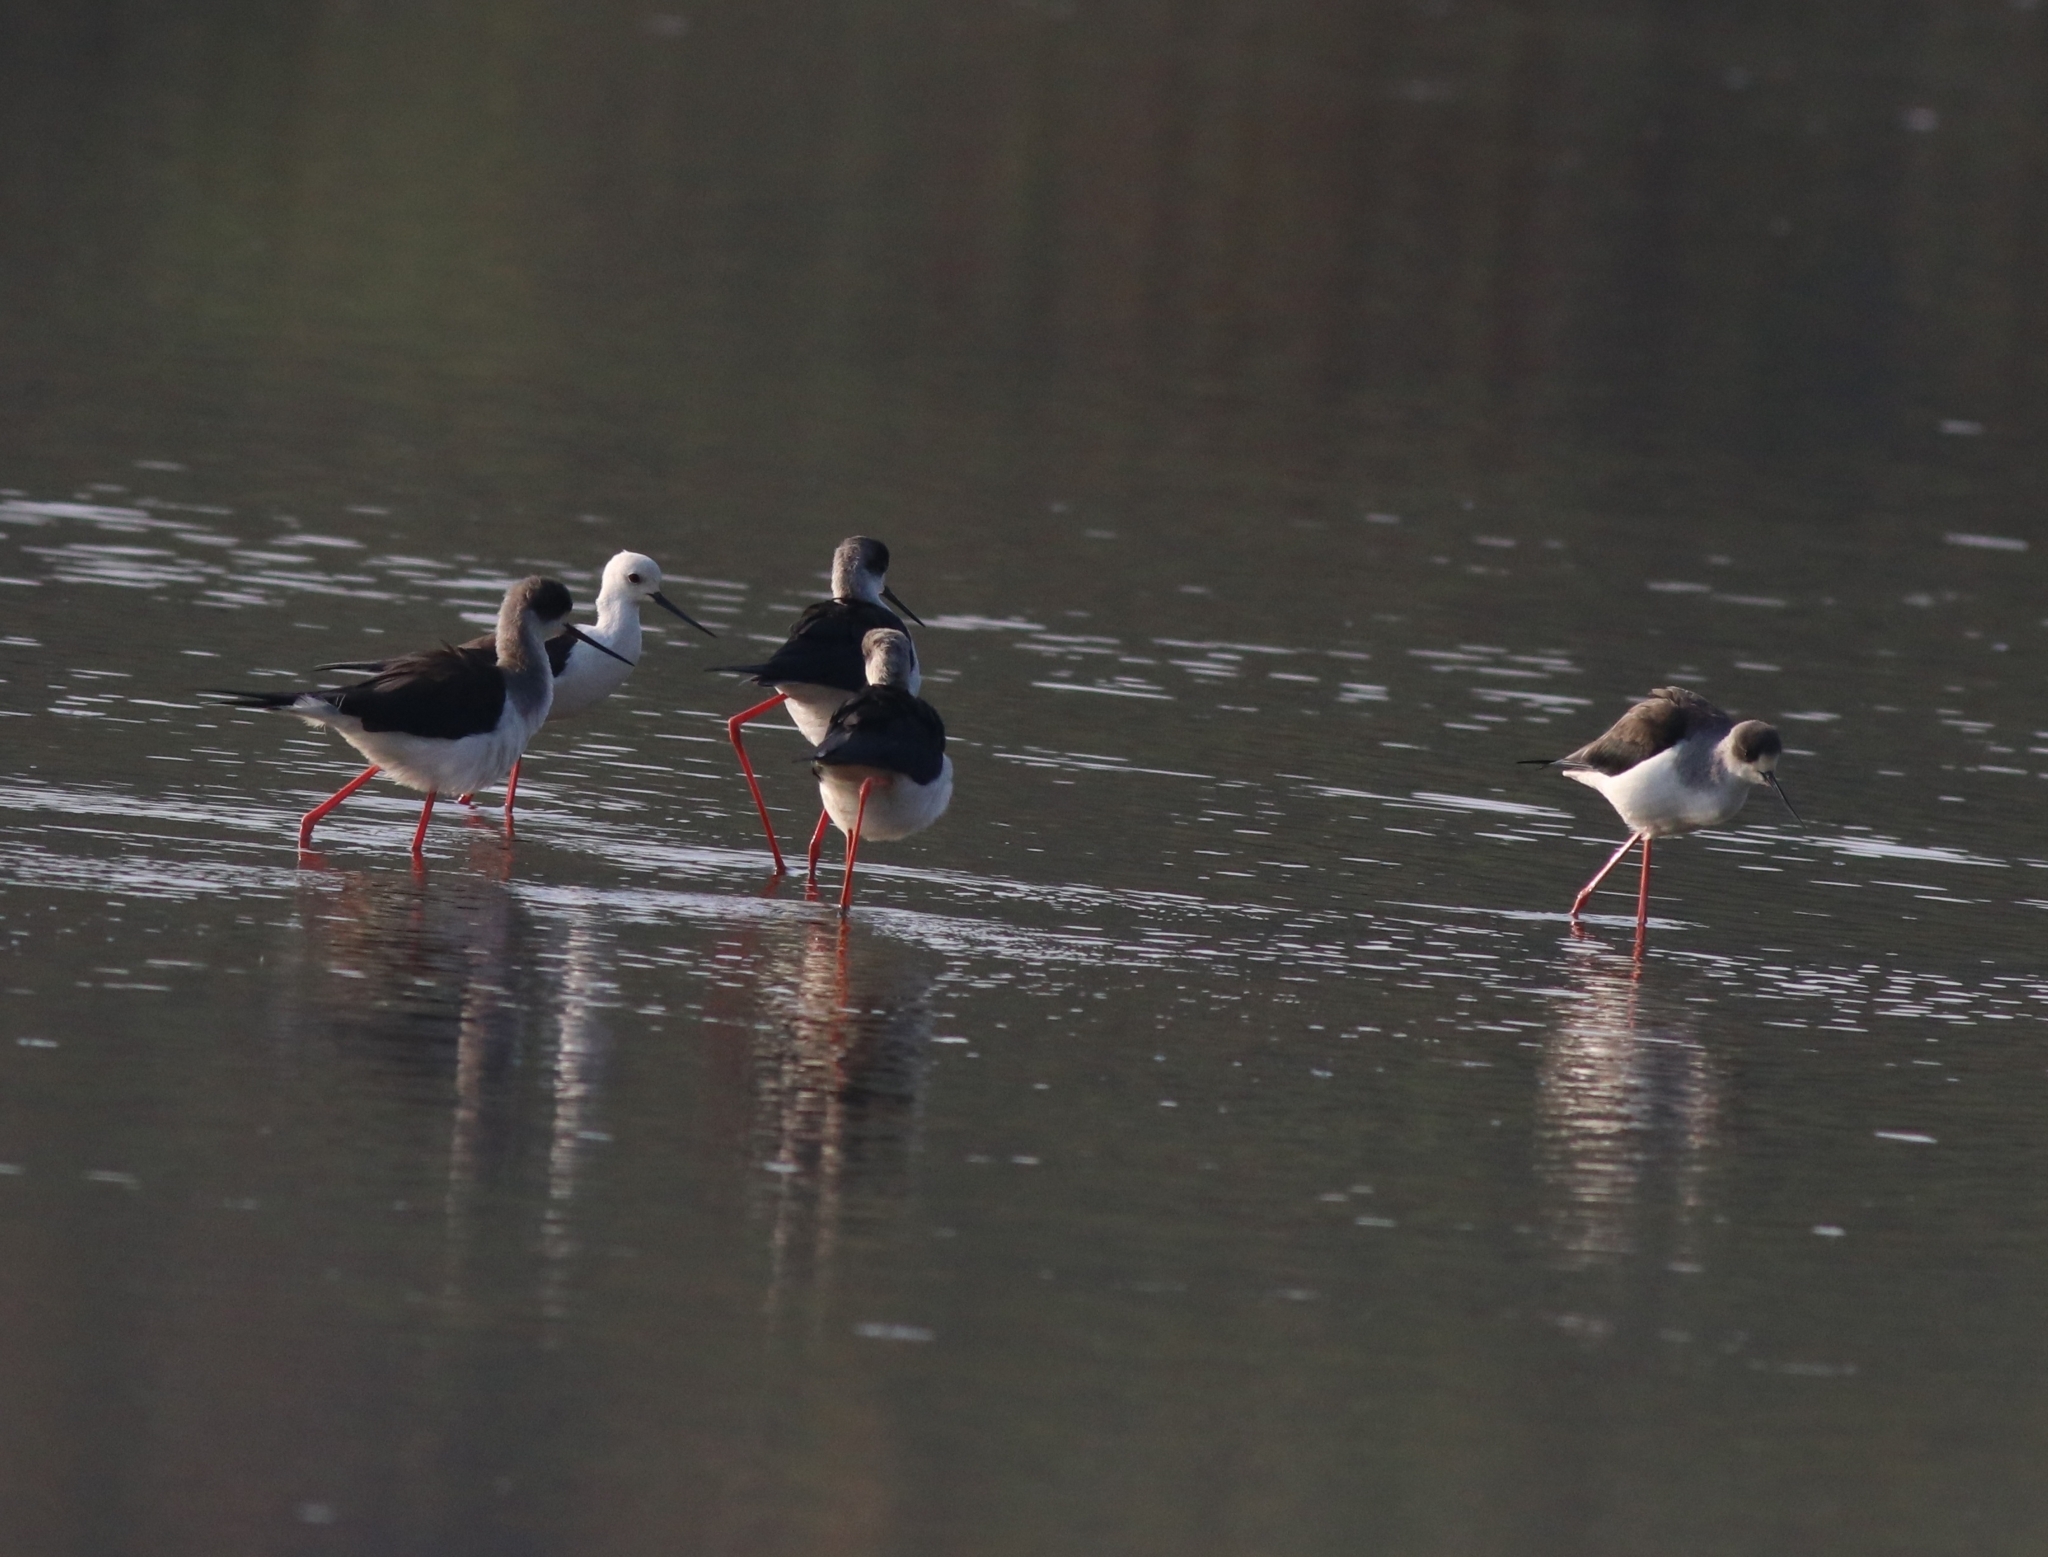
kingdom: Animalia
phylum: Chordata
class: Aves
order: Charadriiformes
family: Recurvirostridae
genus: Himantopus
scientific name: Himantopus himantopus
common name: Black-winged stilt
